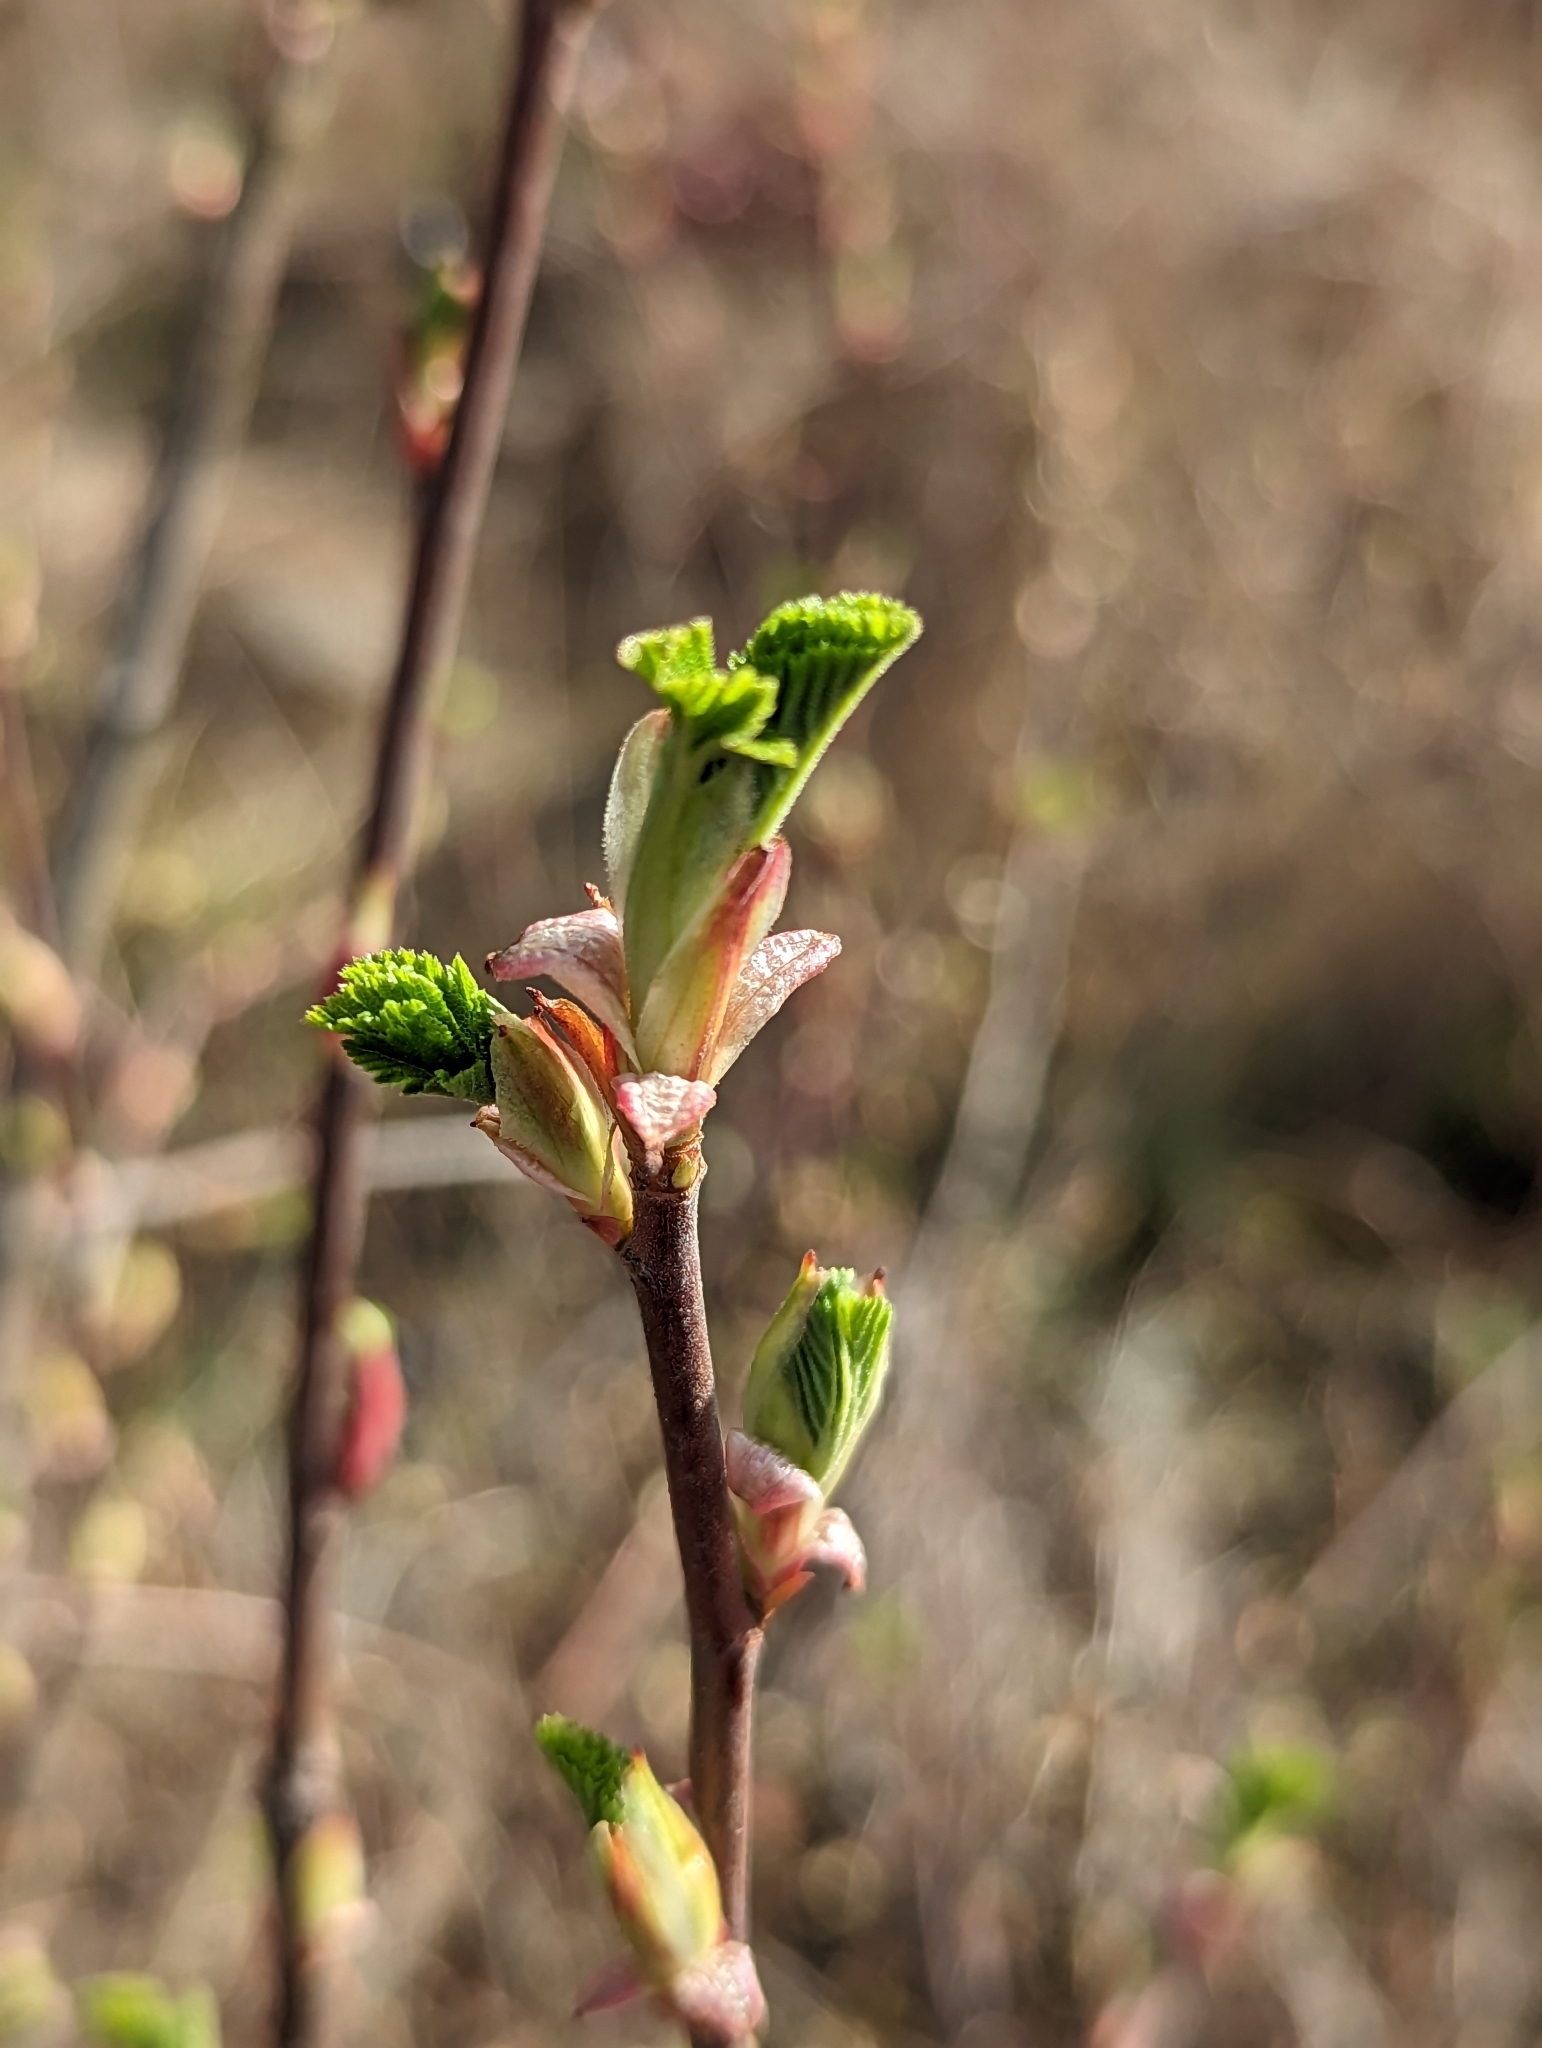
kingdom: Plantae
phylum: Tracheophyta
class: Magnoliopsida
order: Saxifragales
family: Grossulariaceae
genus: Ribes
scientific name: Ribes sanguineum
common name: Flowering currant
